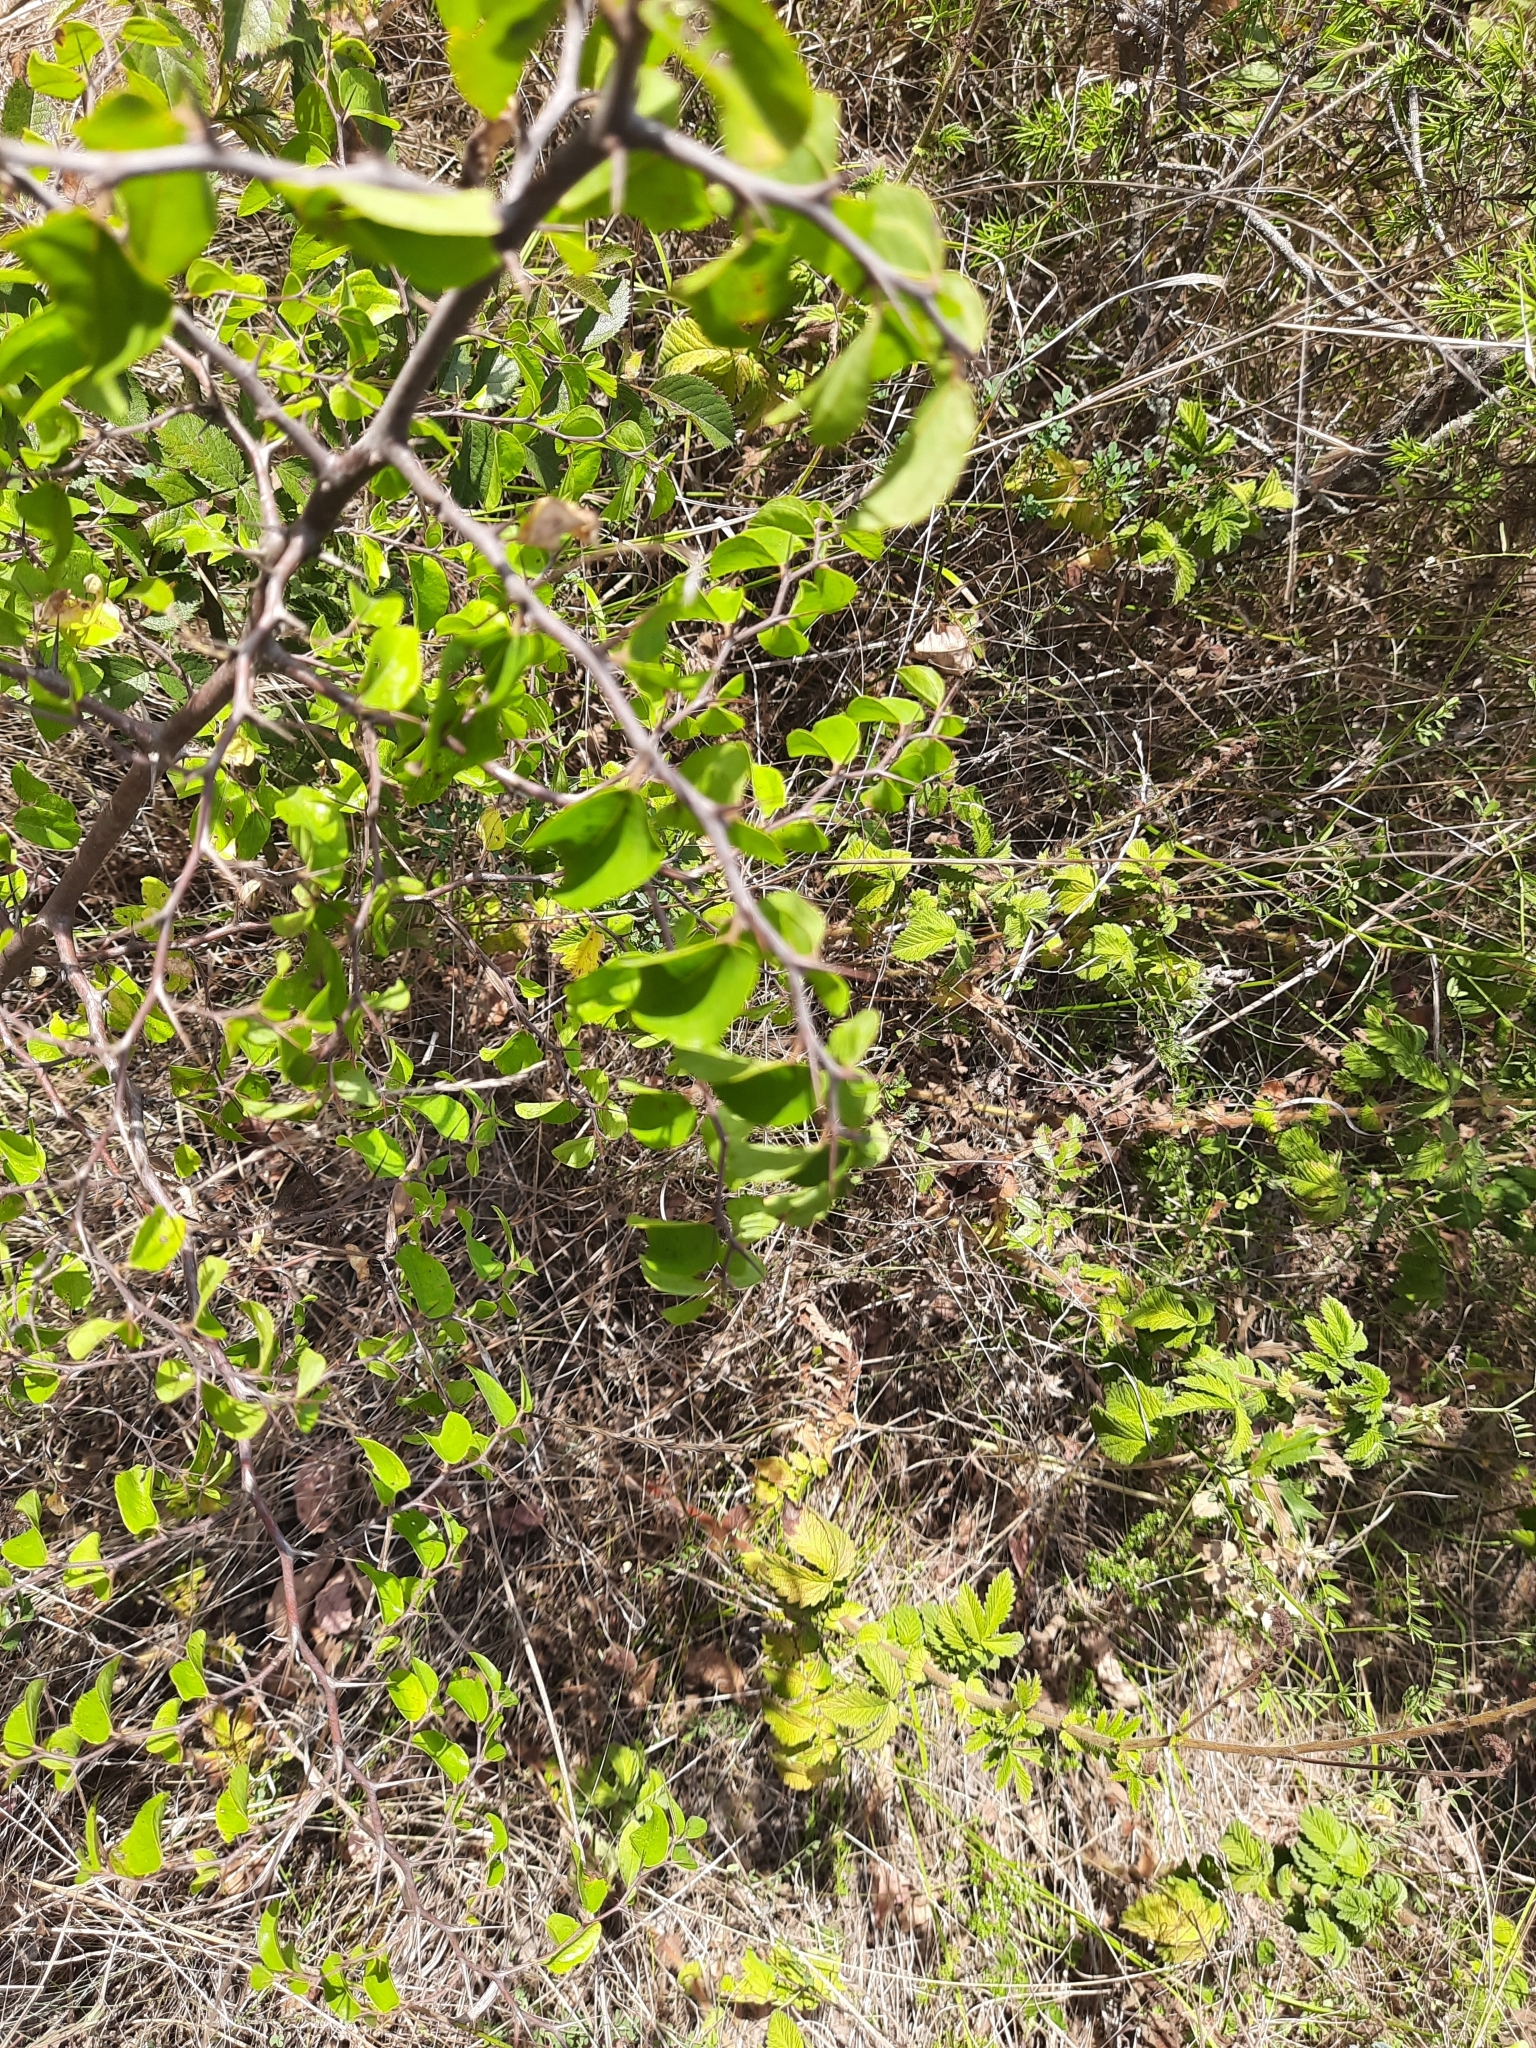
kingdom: Plantae
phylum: Tracheophyta
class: Magnoliopsida
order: Rosales
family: Rhamnaceae
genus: Paliurus
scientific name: Paliurus spina-christi
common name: Jeruselem thorn
